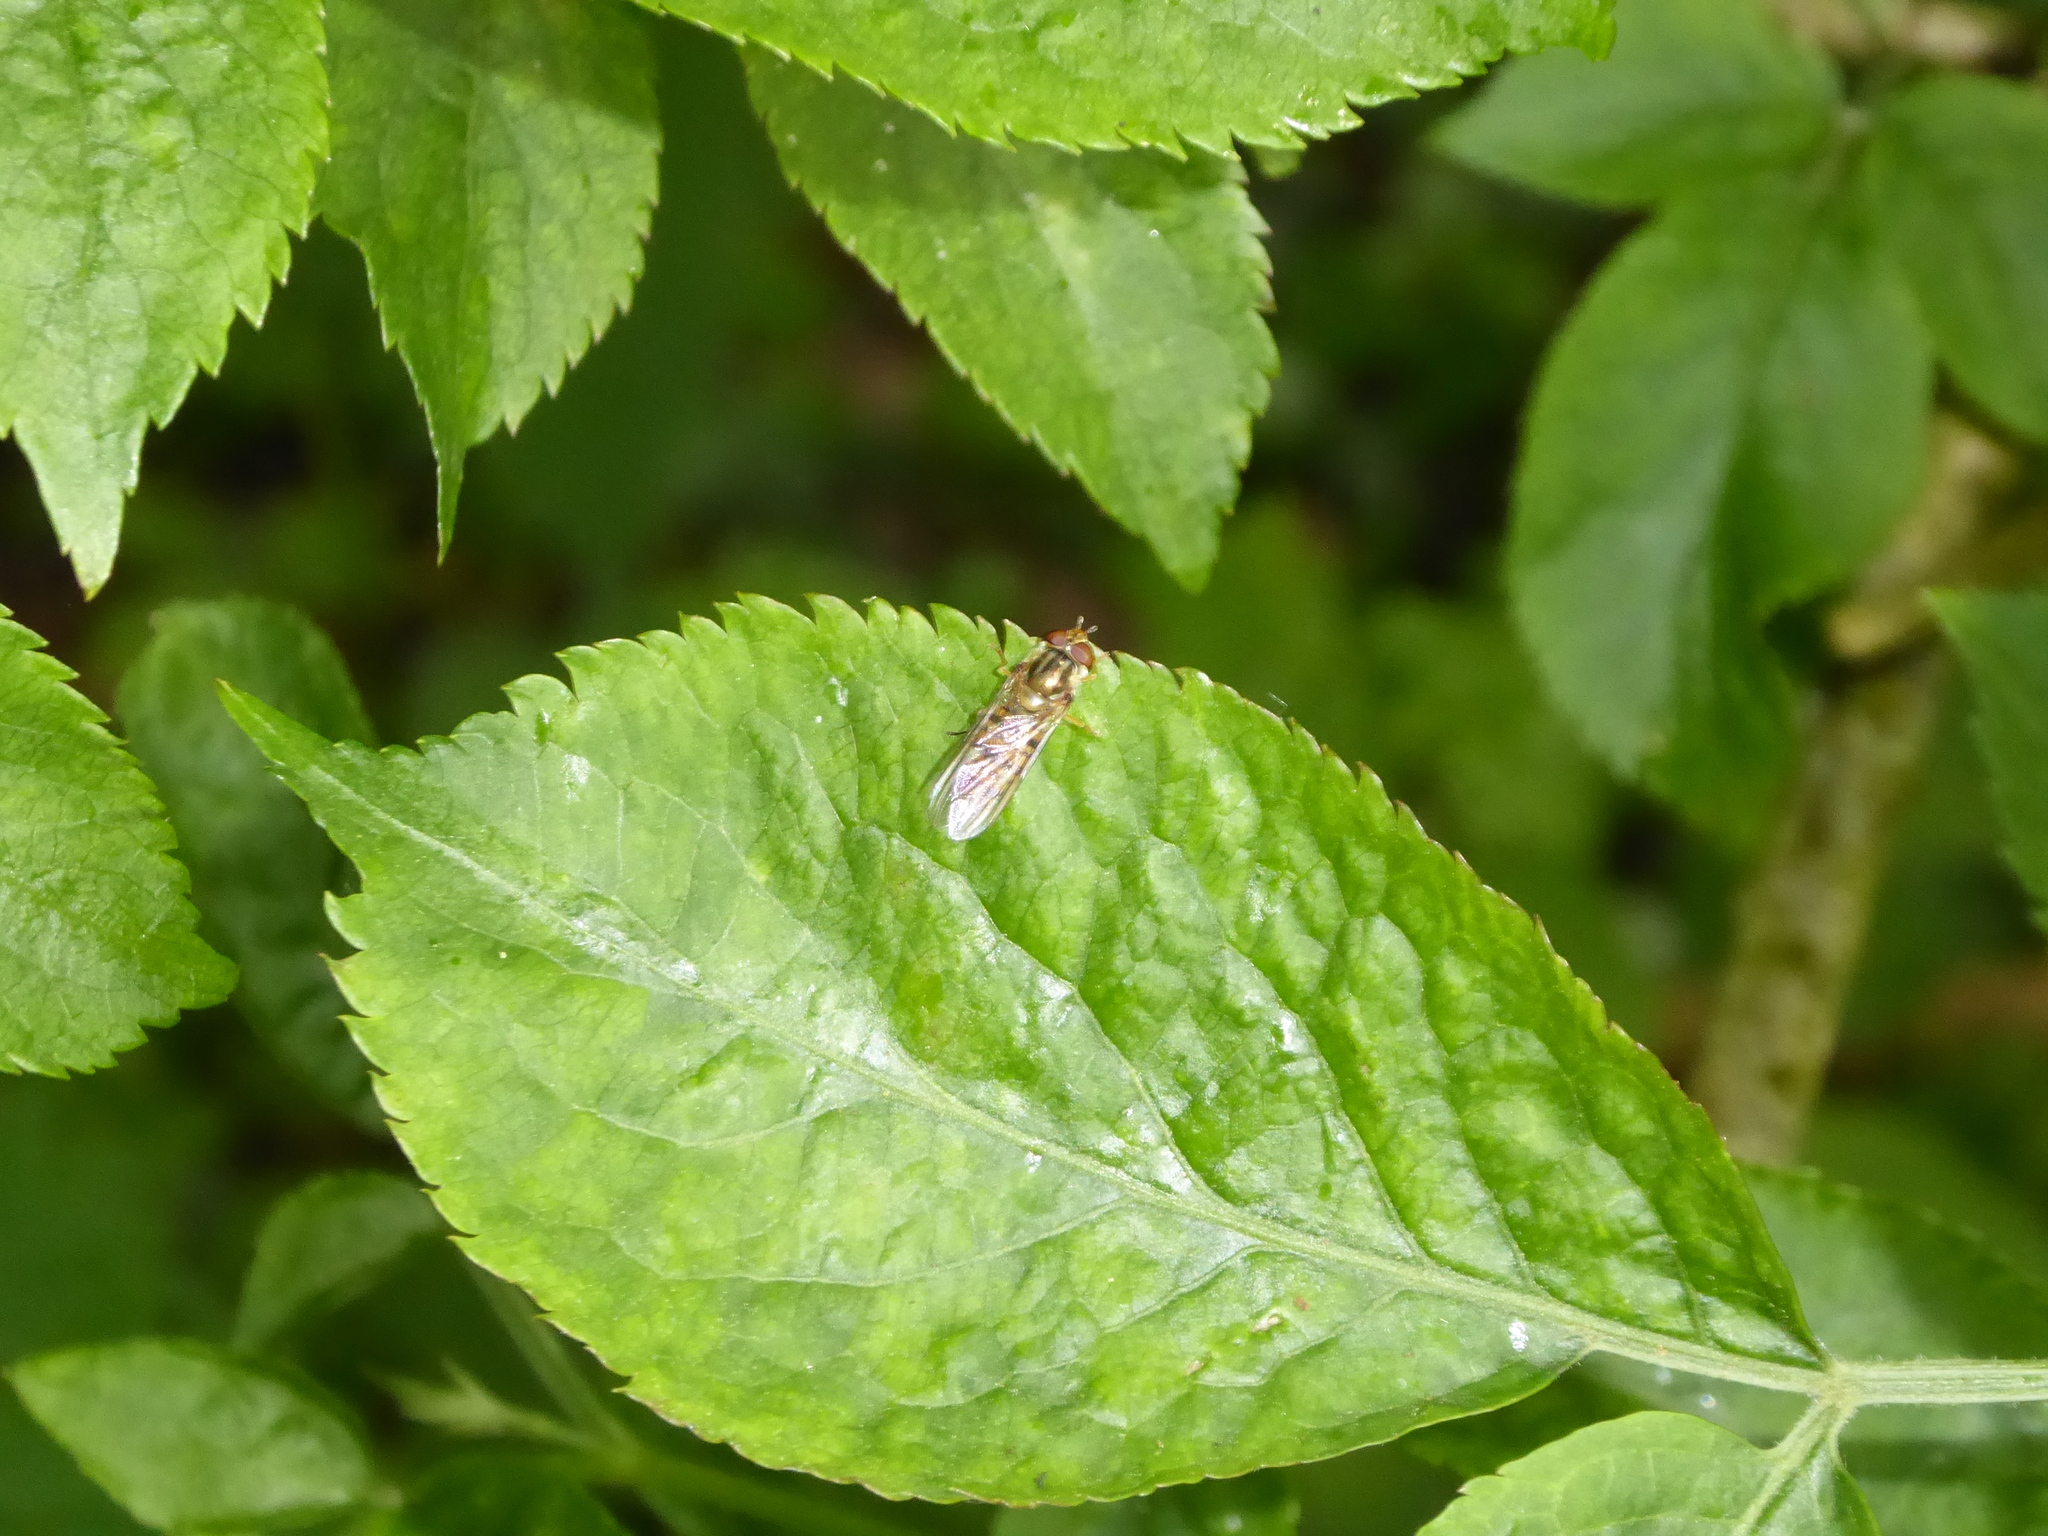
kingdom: Animalia
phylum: Arthropoda
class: Insecta
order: Diptera
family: Syrphidae
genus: Episyrphus
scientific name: Episyrphus balteatus
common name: Marmalade hoverfly
